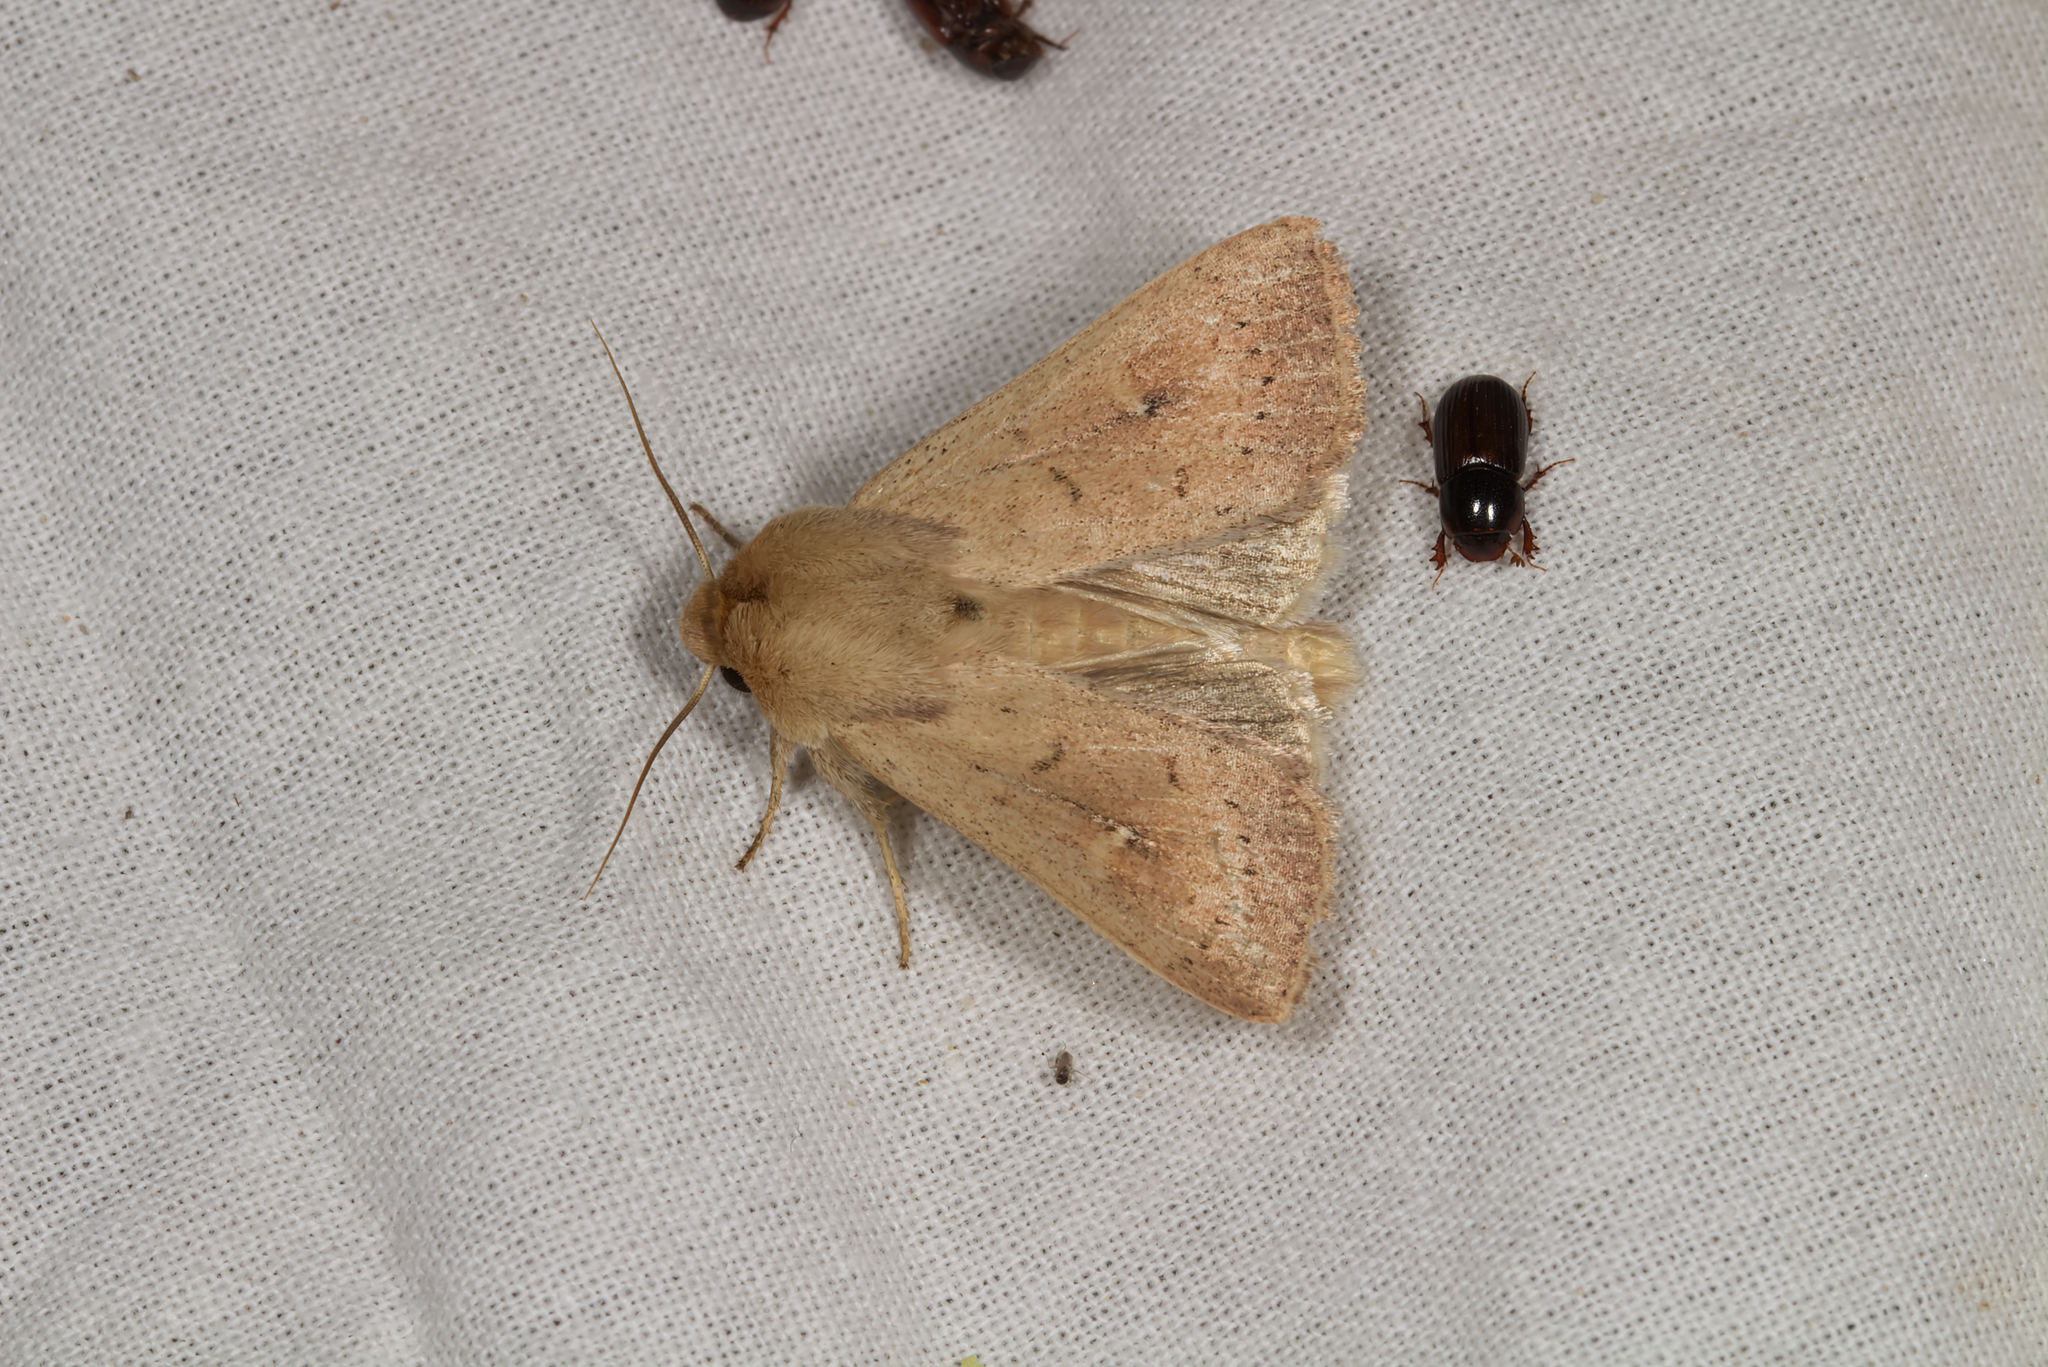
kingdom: Animalia
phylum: Arthropoda
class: Insecta
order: Lepidoptera
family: Noctuidae
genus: Mythimna
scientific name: Mythimna ferrago
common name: Clay
